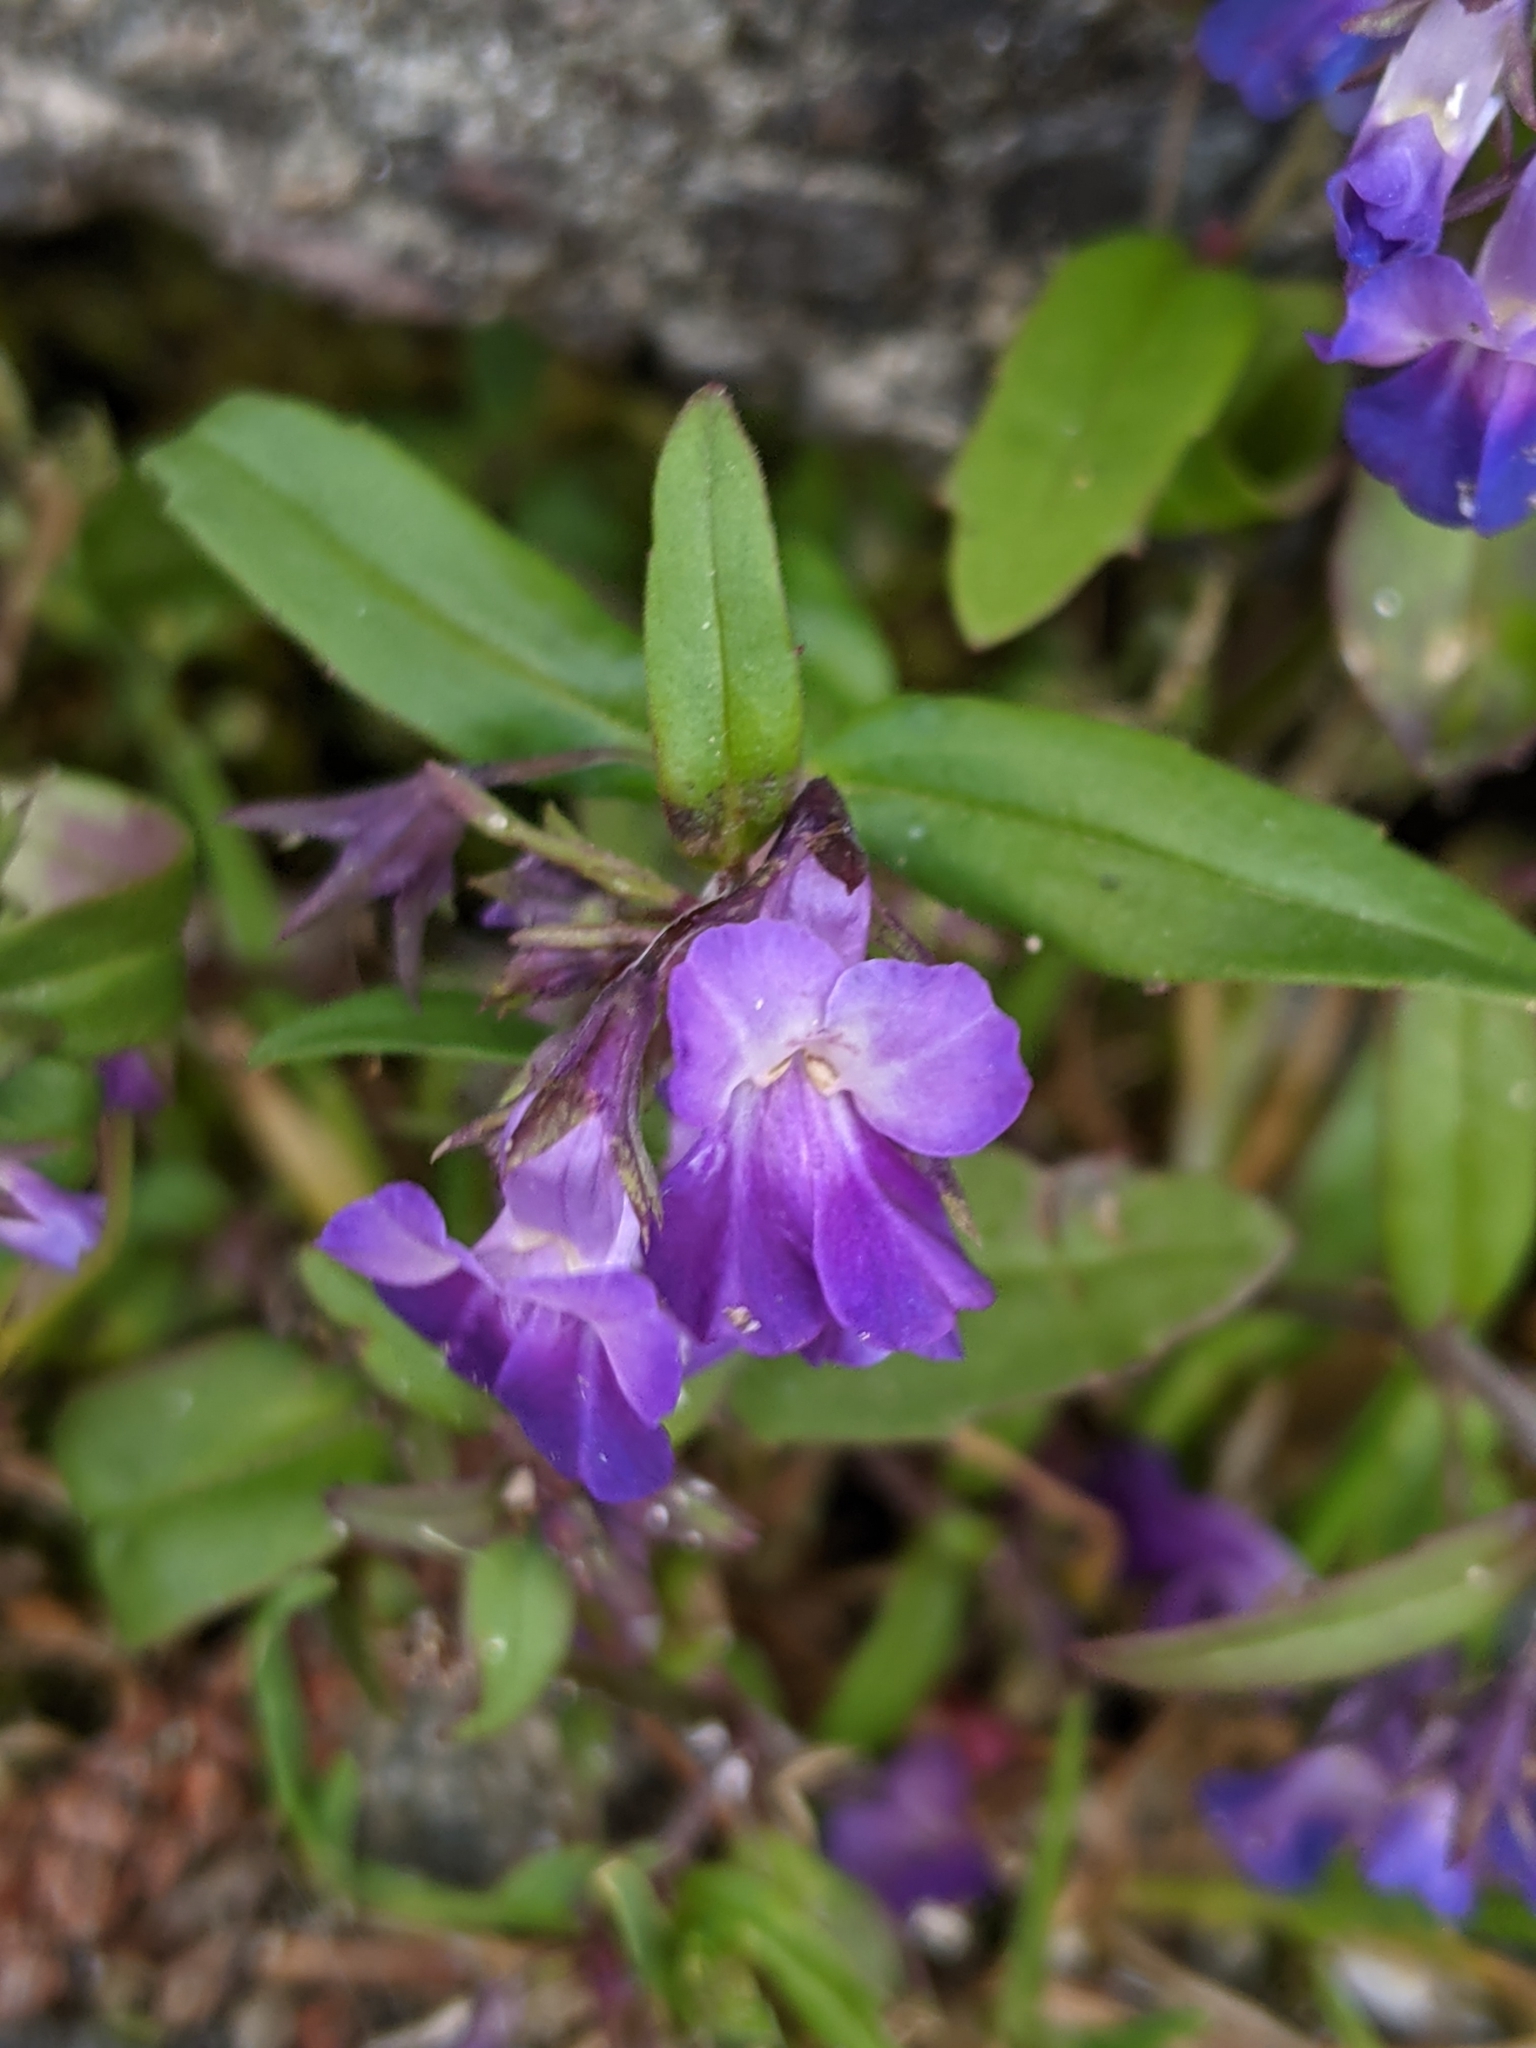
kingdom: Plantae
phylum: Tracheophyta
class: Magnoliopsida
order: Lamiales
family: Plantaginaceae
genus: Collinsia
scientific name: Collinsia grandiflora
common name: Large-flower blue-eyed-mary
